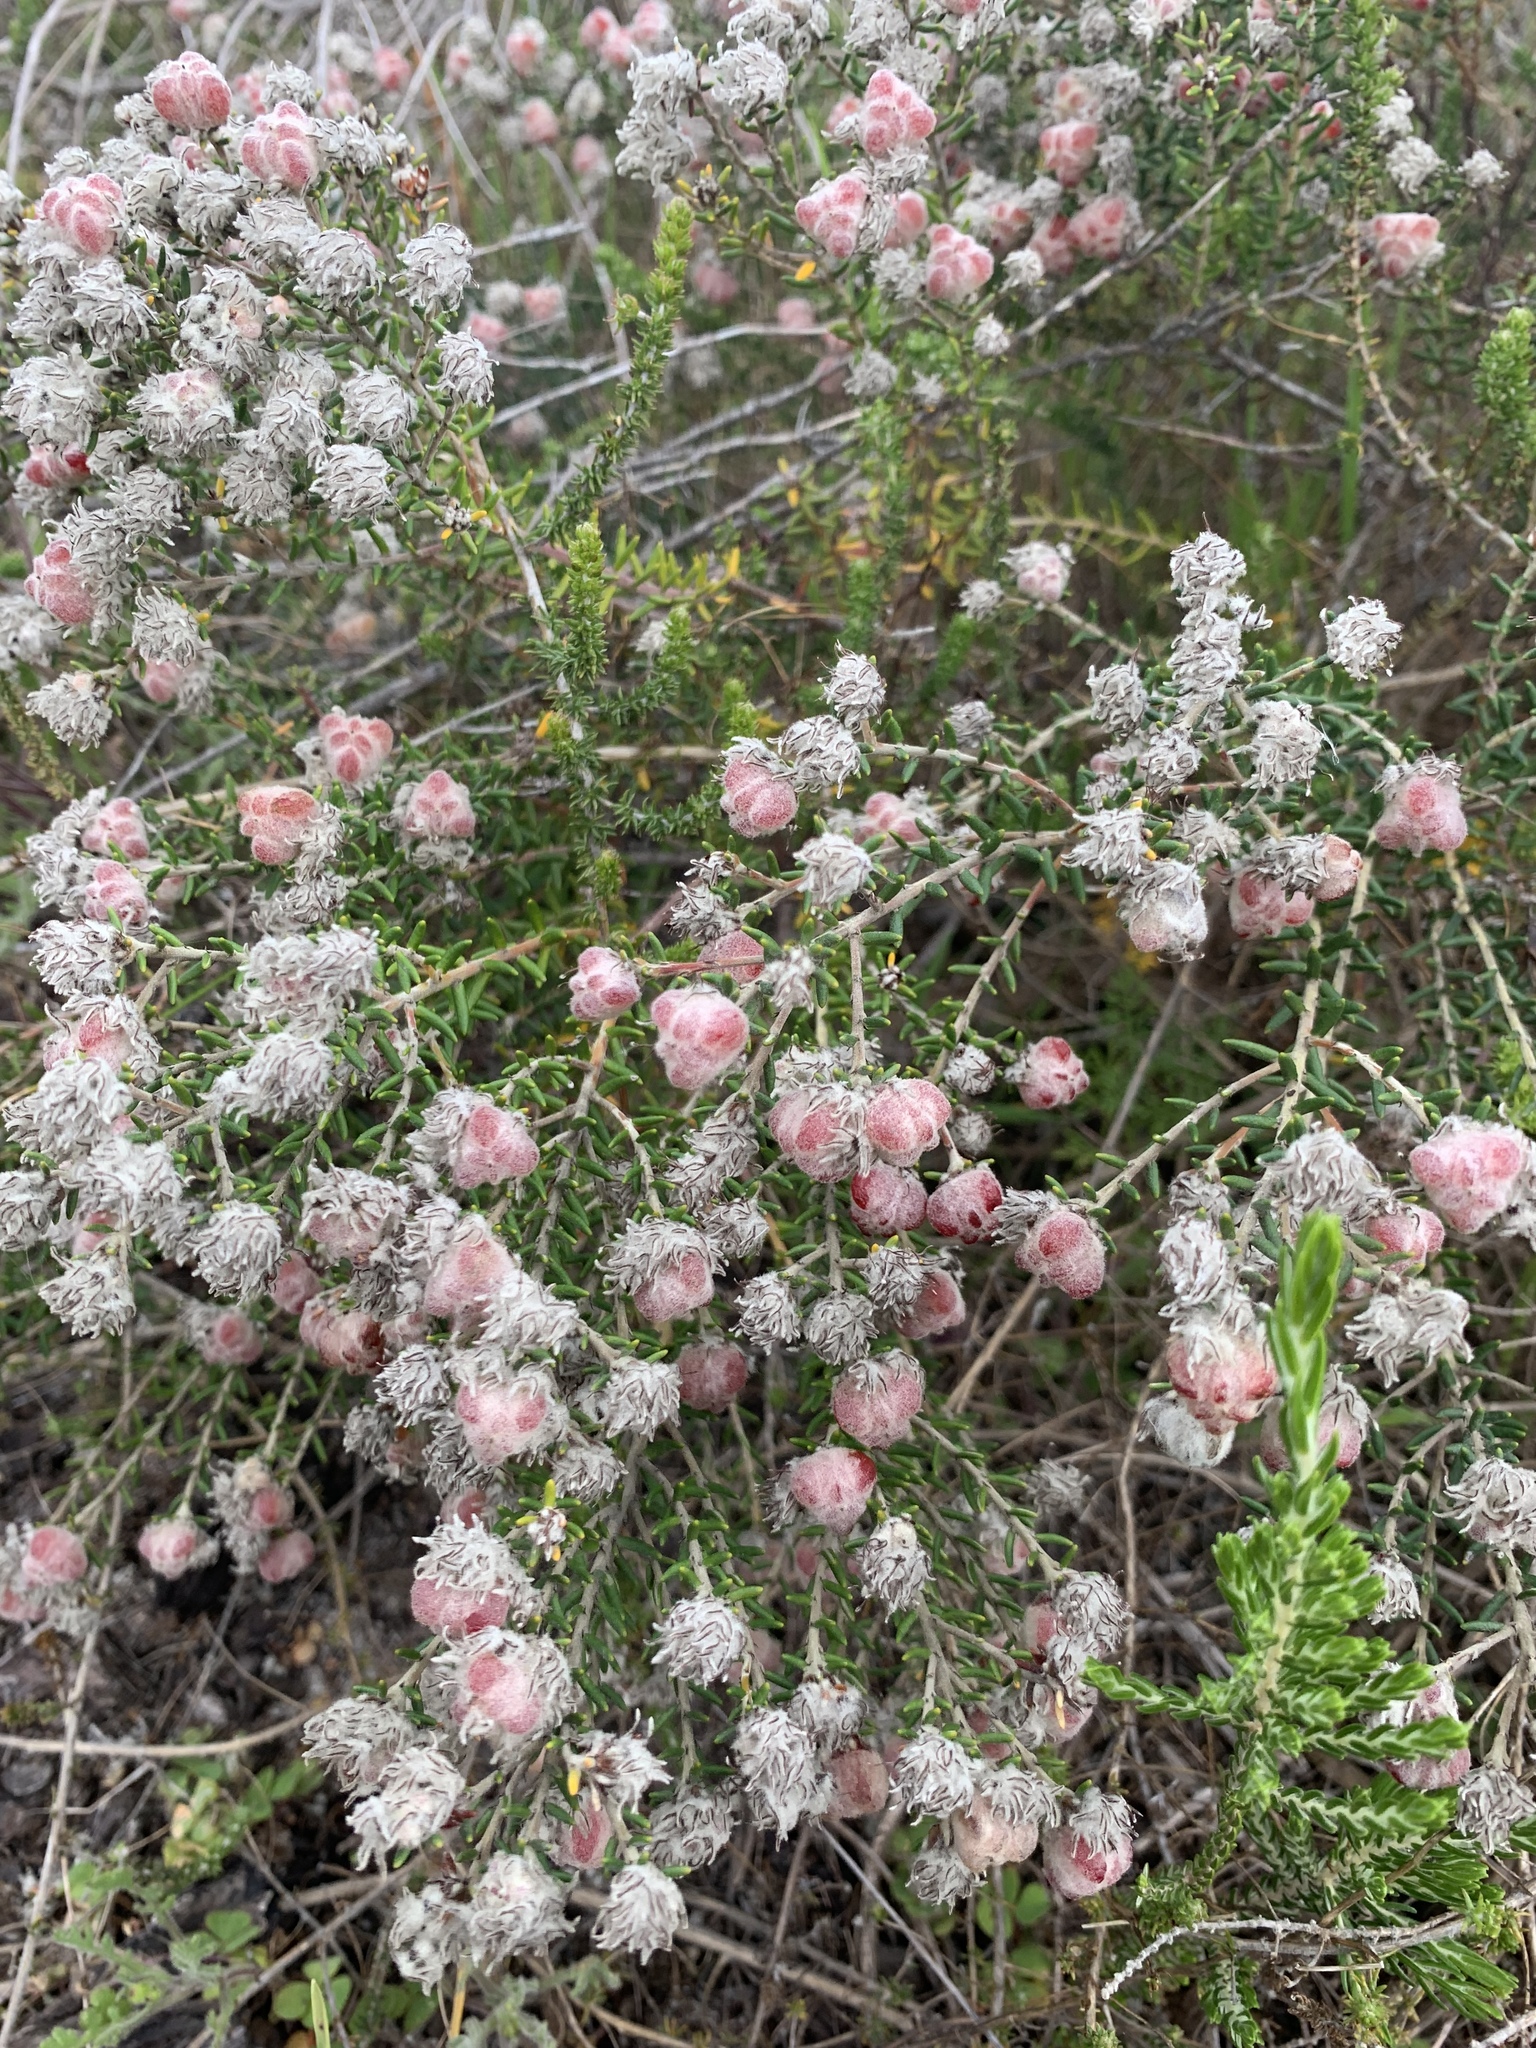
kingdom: Plantae
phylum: Tracheophyta
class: Magnoliopsida
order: Rosales
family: Rhamnaceae
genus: Trichocephalus
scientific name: Trichocephalus stipularis
